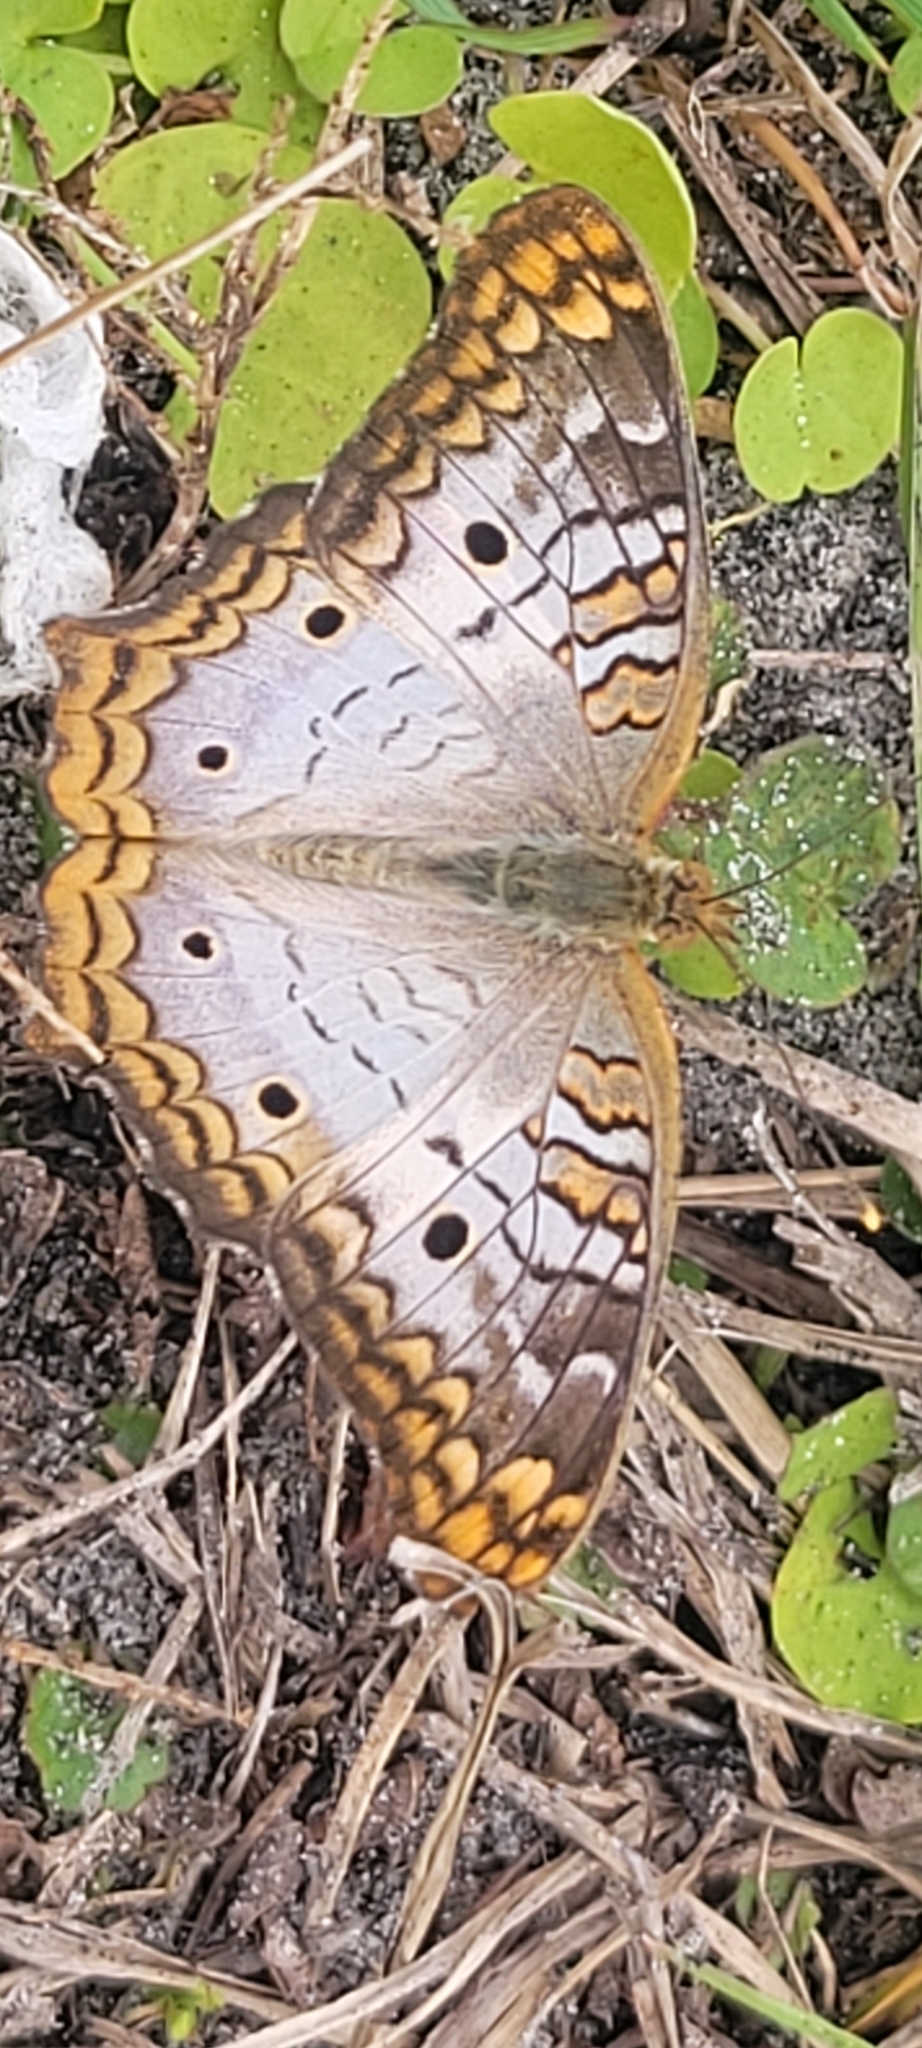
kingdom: Animalia
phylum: Arthropoda
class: Insecta
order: Lepidoptera
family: Nymphalidae
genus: Anartia
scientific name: Anartia jatrophae
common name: White peacock
